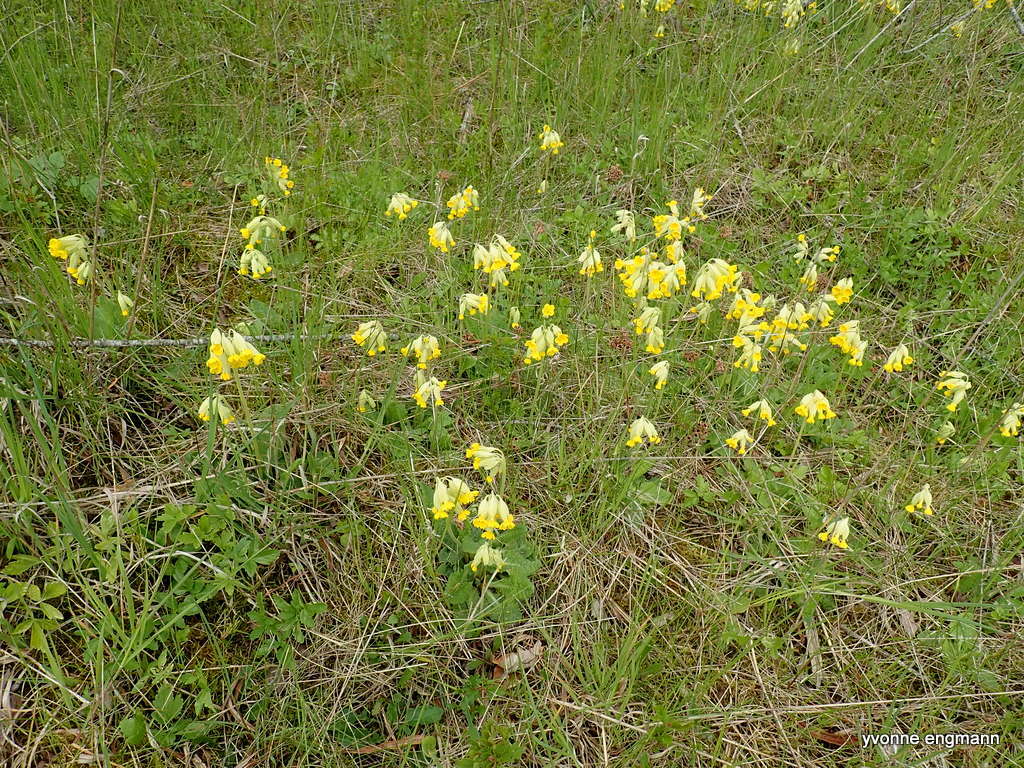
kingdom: Plantae
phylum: Tracheophyta
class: Magnoliopsida
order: Ericales
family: Primulaceae
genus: Primula
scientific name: Primula veris
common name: Cowslip
